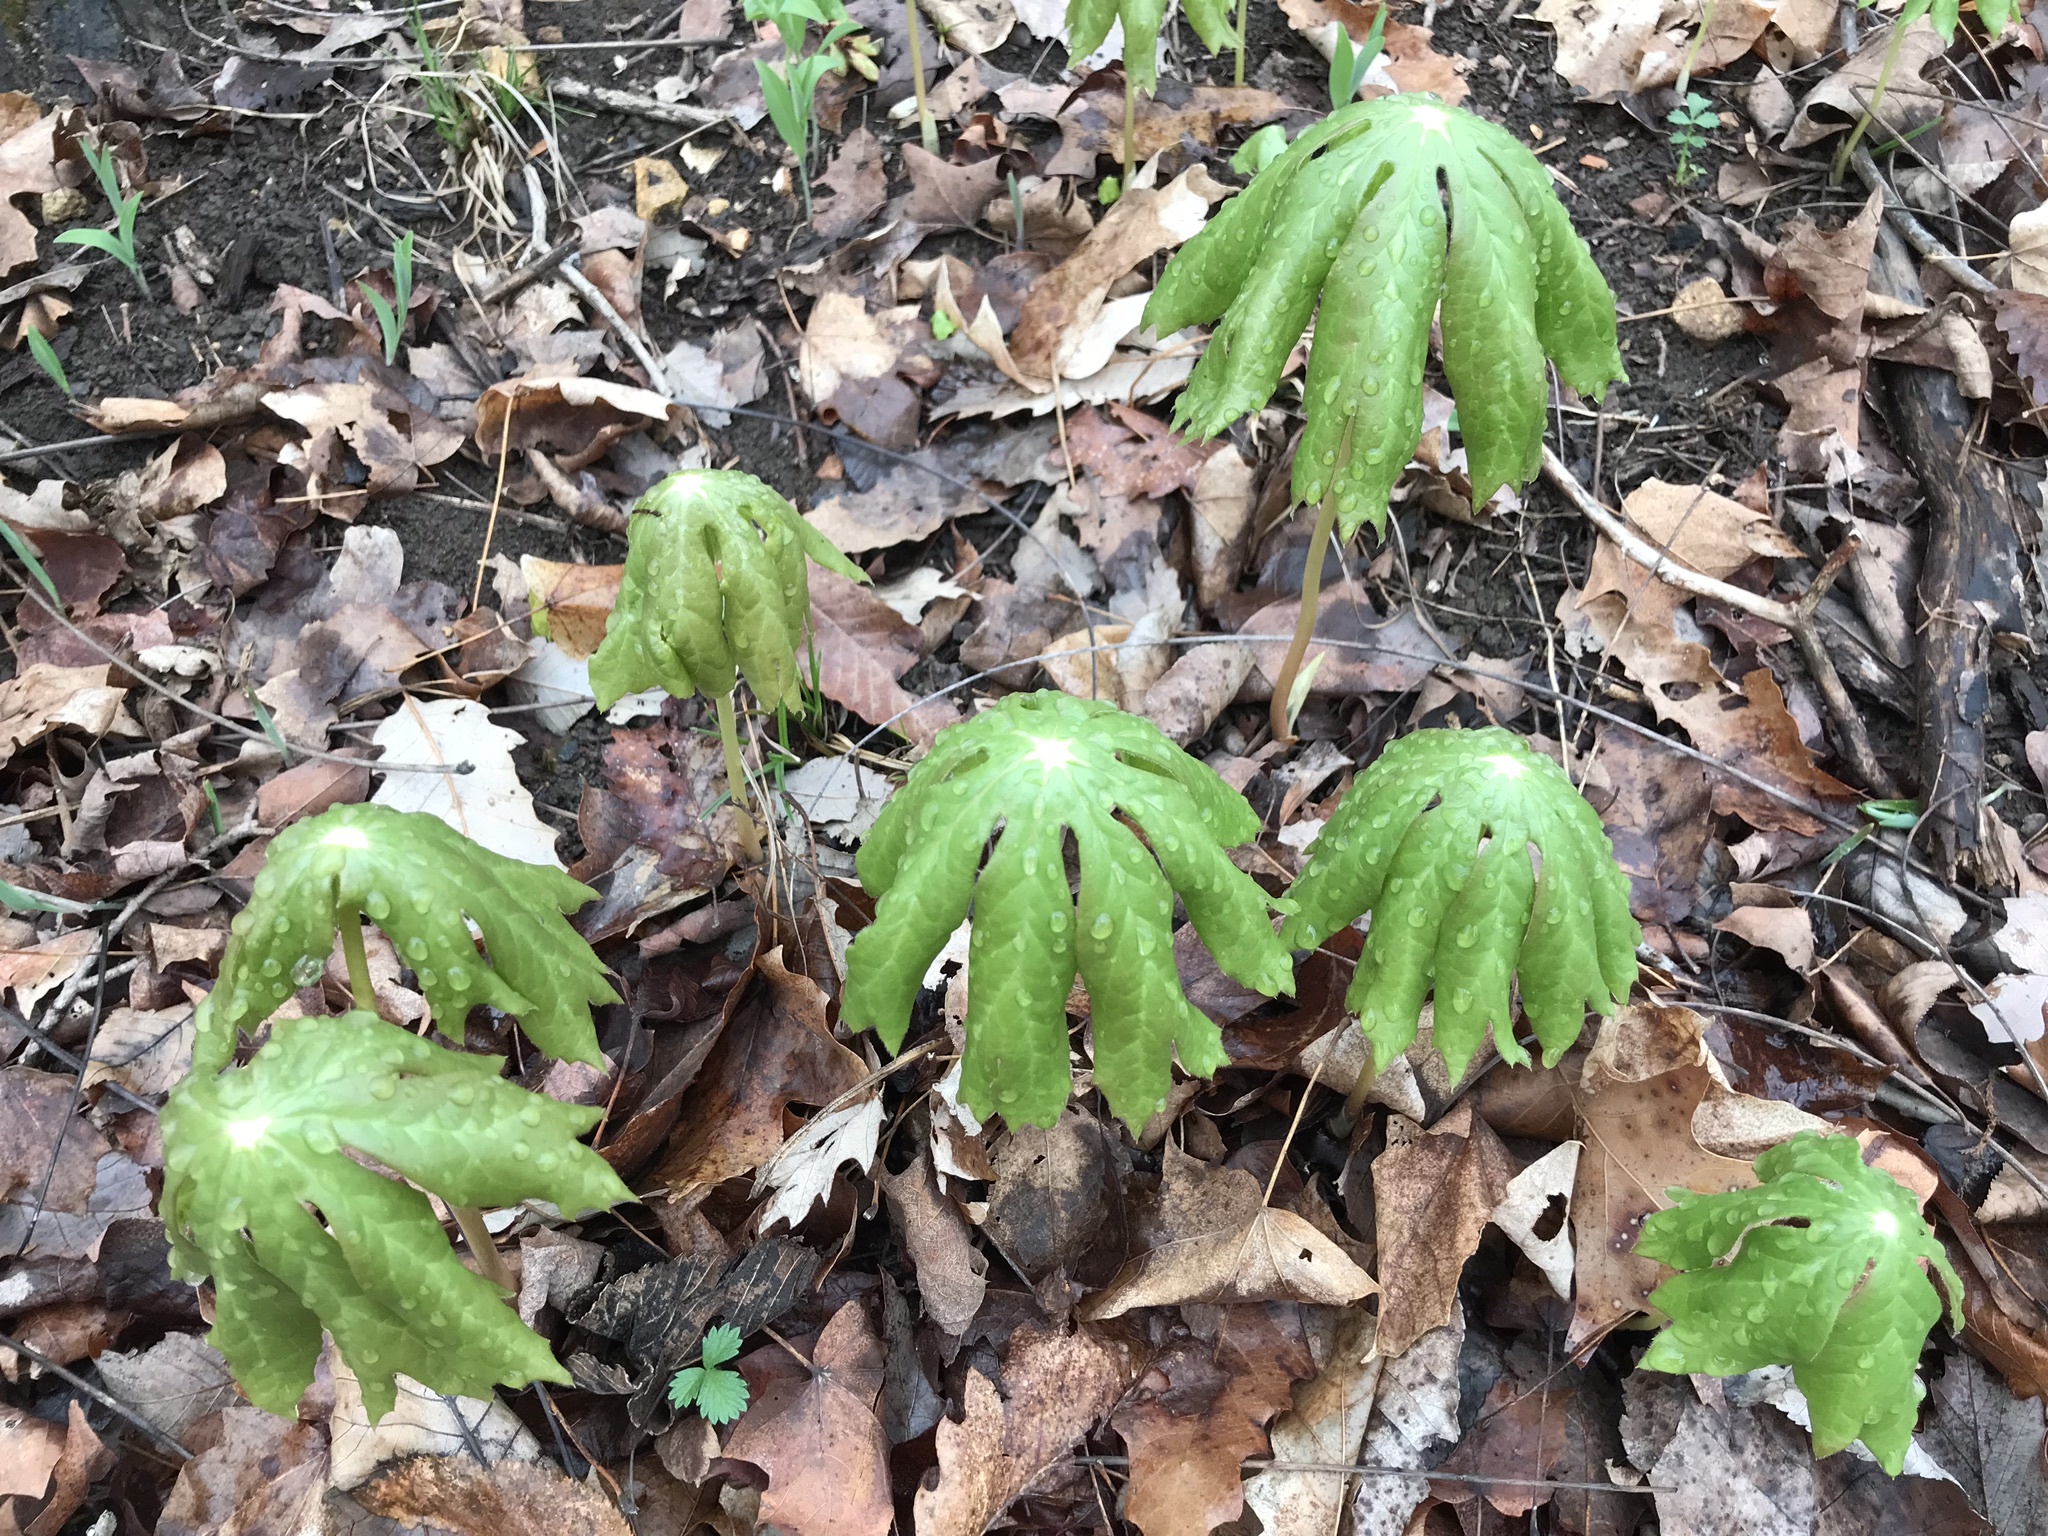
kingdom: Plantae
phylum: Tracheophyta
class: Magnoliopsida
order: Ranunculales
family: Berberidaceae
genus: Podophyllum
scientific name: Podophyllum peltatum
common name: Wild mandrake
